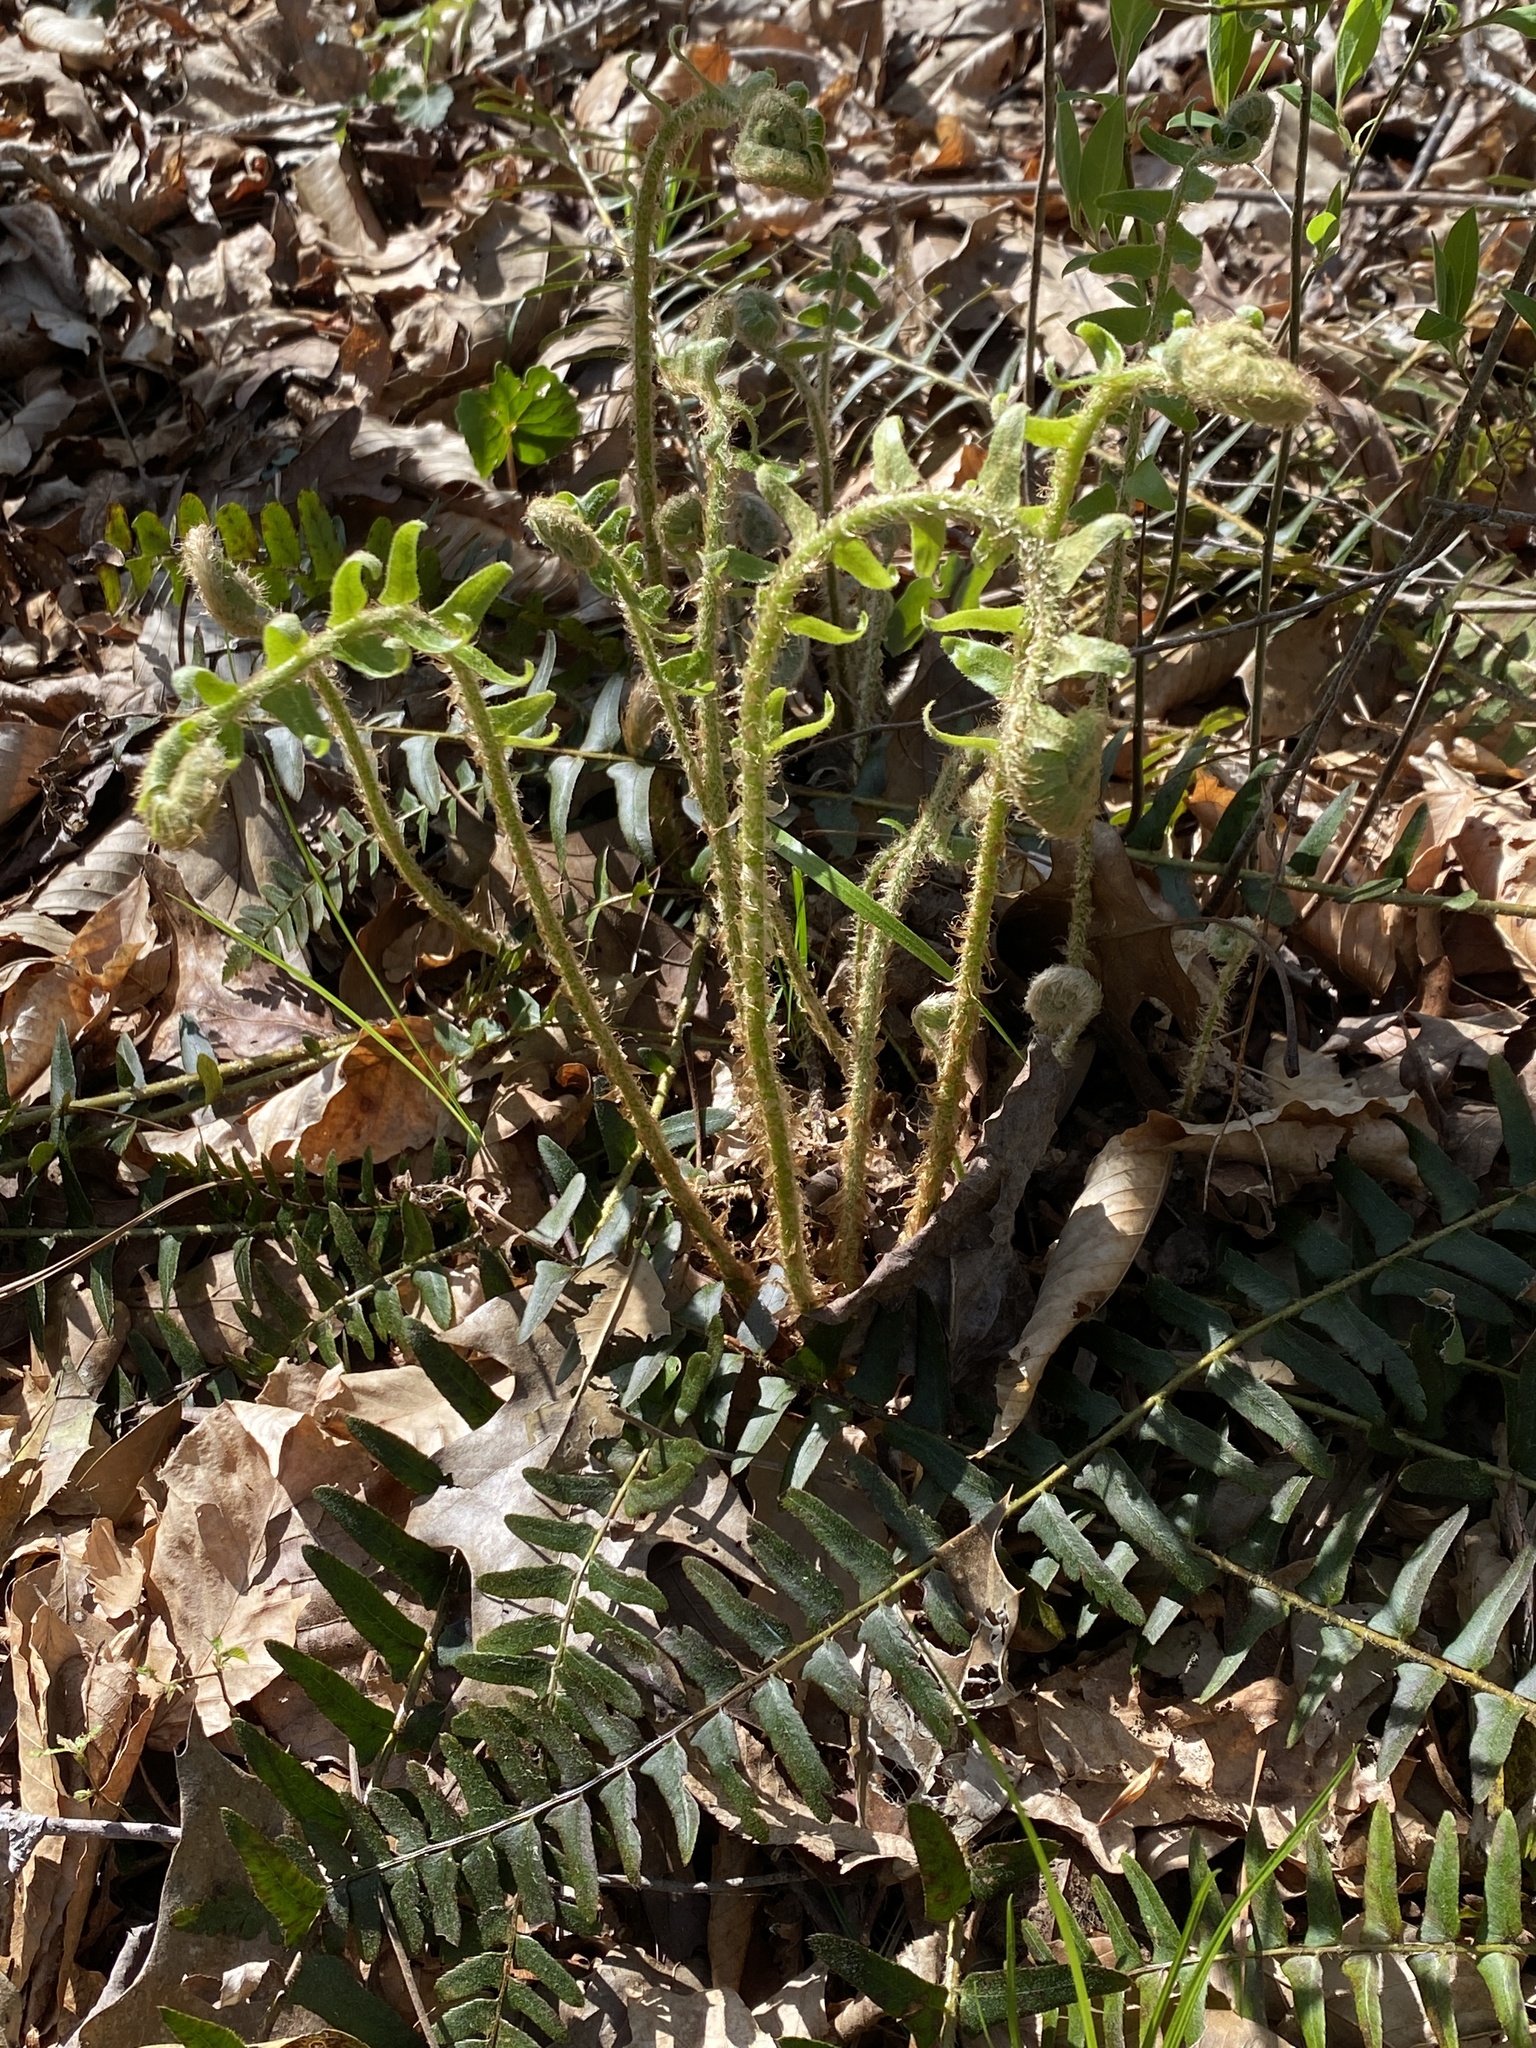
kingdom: Plantae
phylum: Tracheophyta
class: Polypodiopsida
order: Polypodiales
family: Dryopteridaceae
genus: Polystichum
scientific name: Polystichum acrostichoides
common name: Christmas fern
